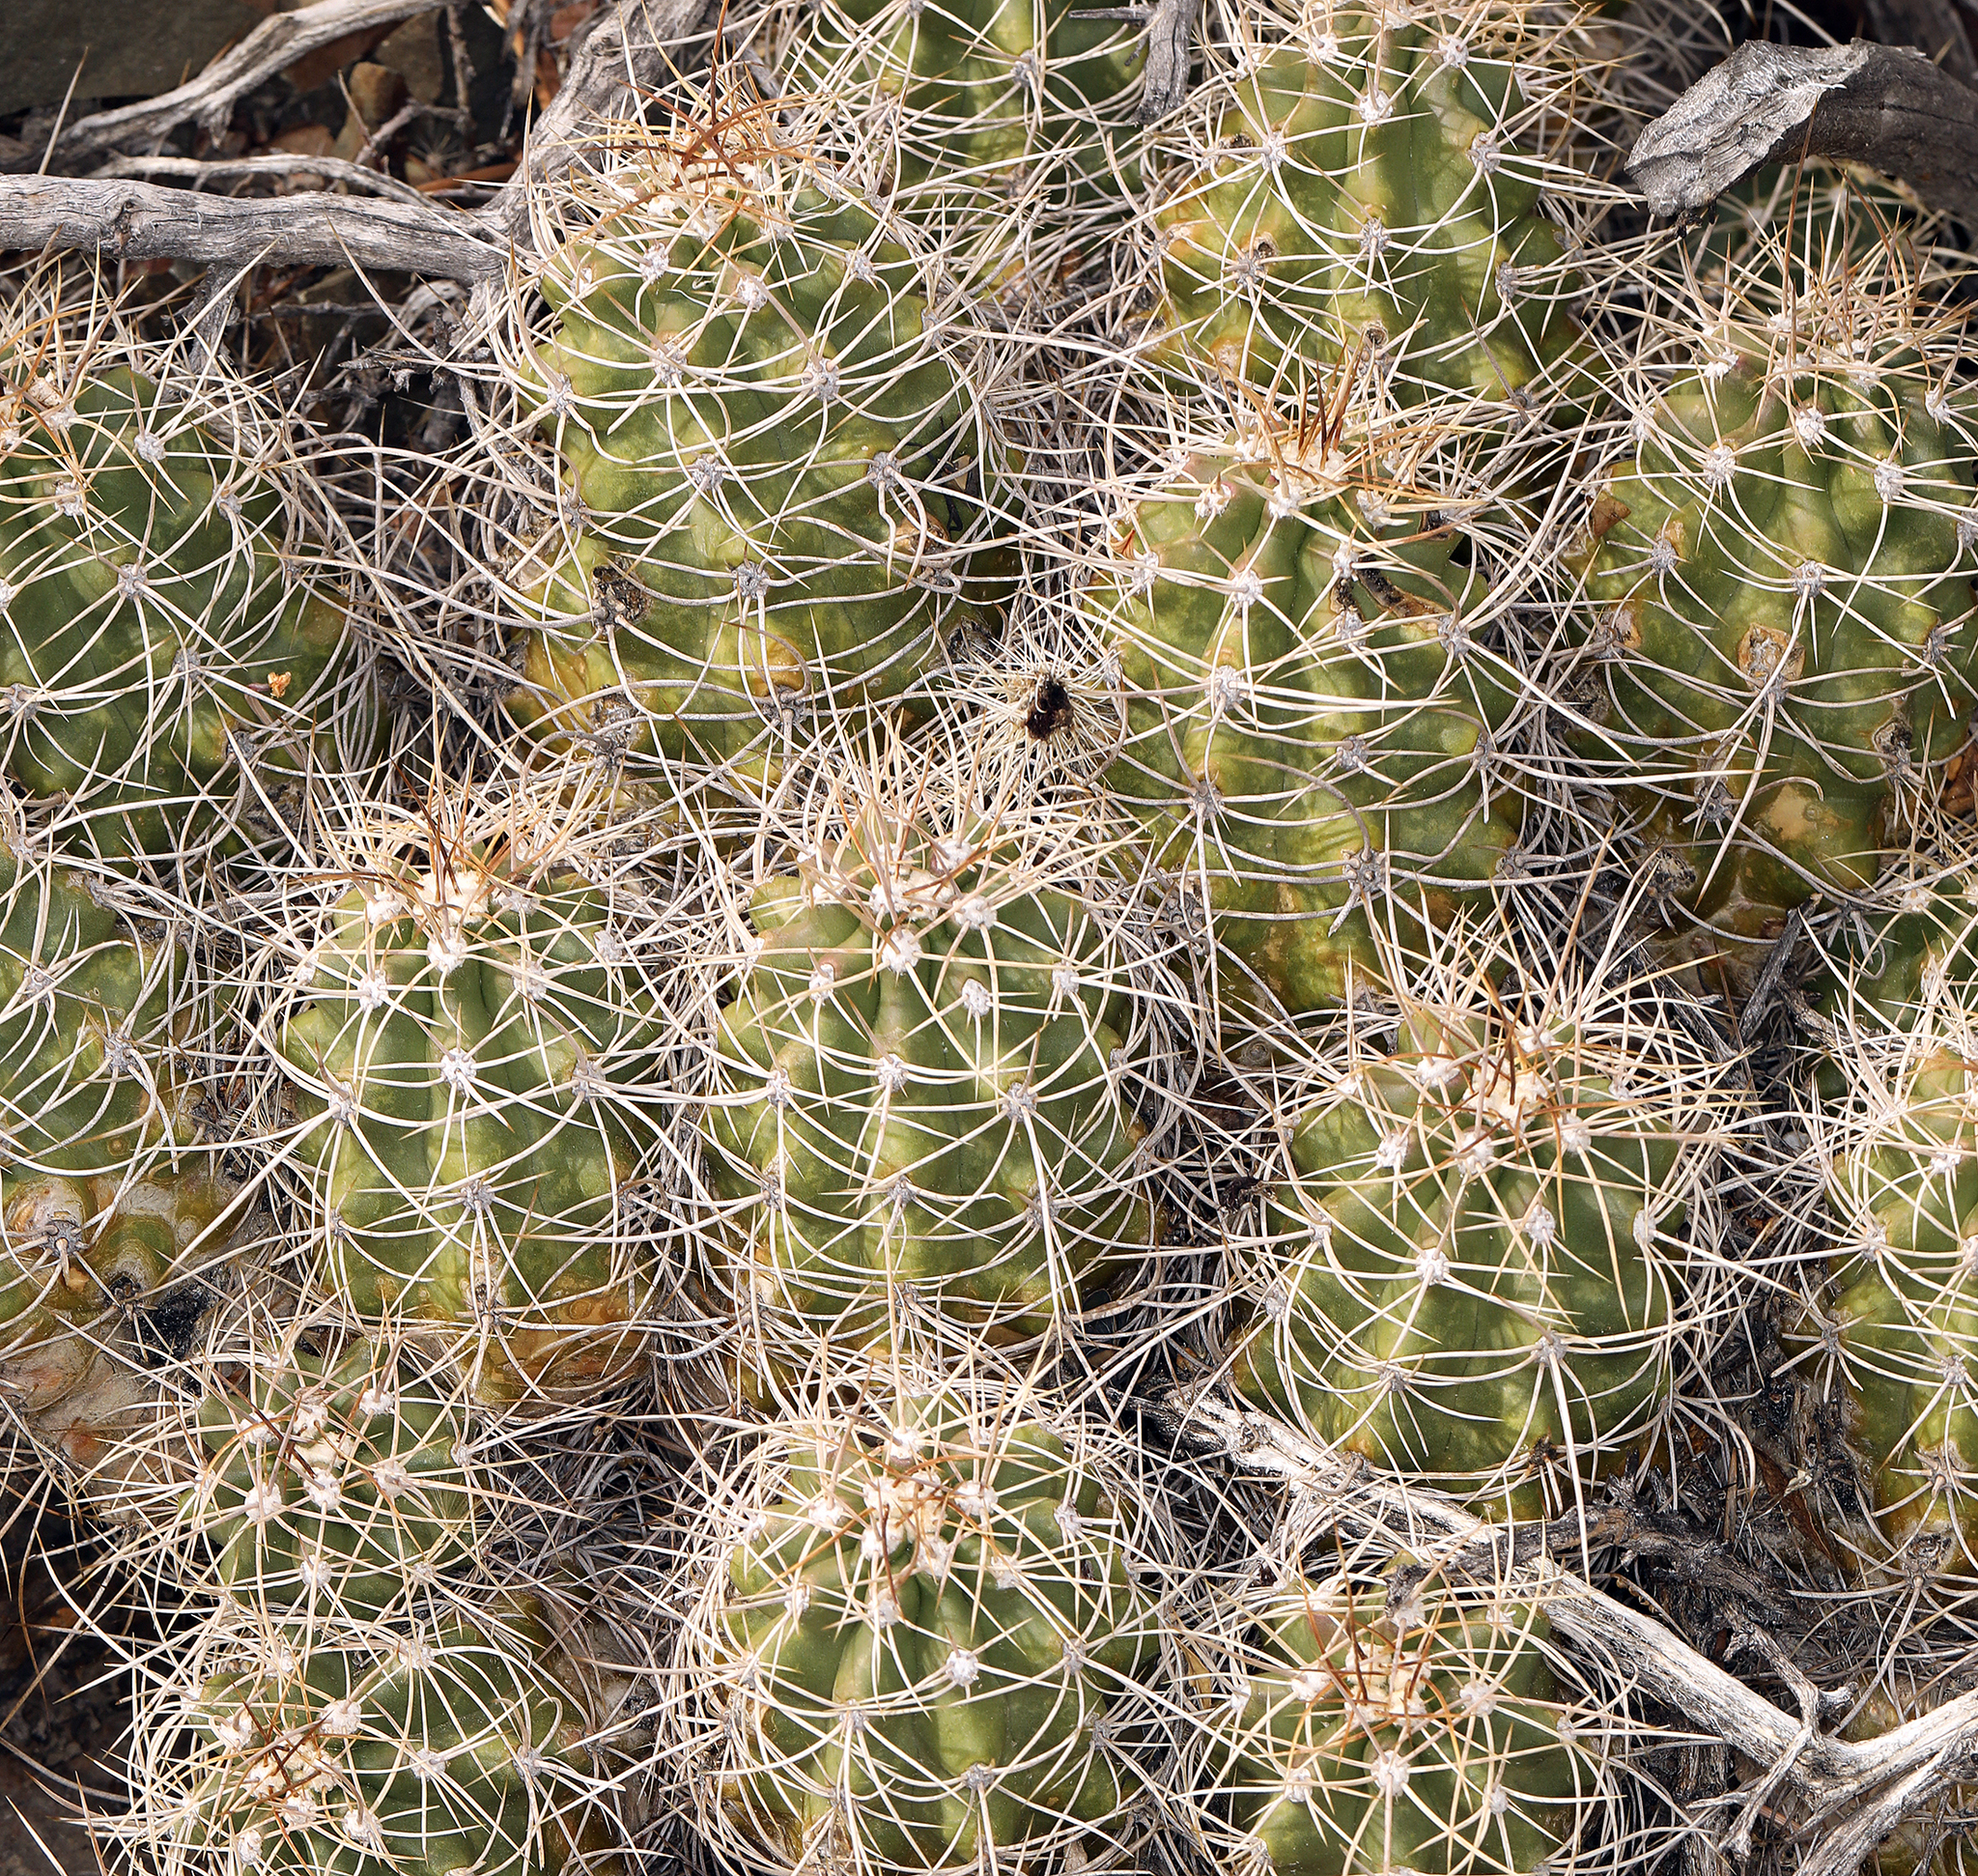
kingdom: Plantae
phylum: Tracheophyta
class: Magnoliopsida
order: Caryophyllales
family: Cactaceae
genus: Echinocereus
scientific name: Echinocereus triglochidiatus
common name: Claretcup hedgehog
